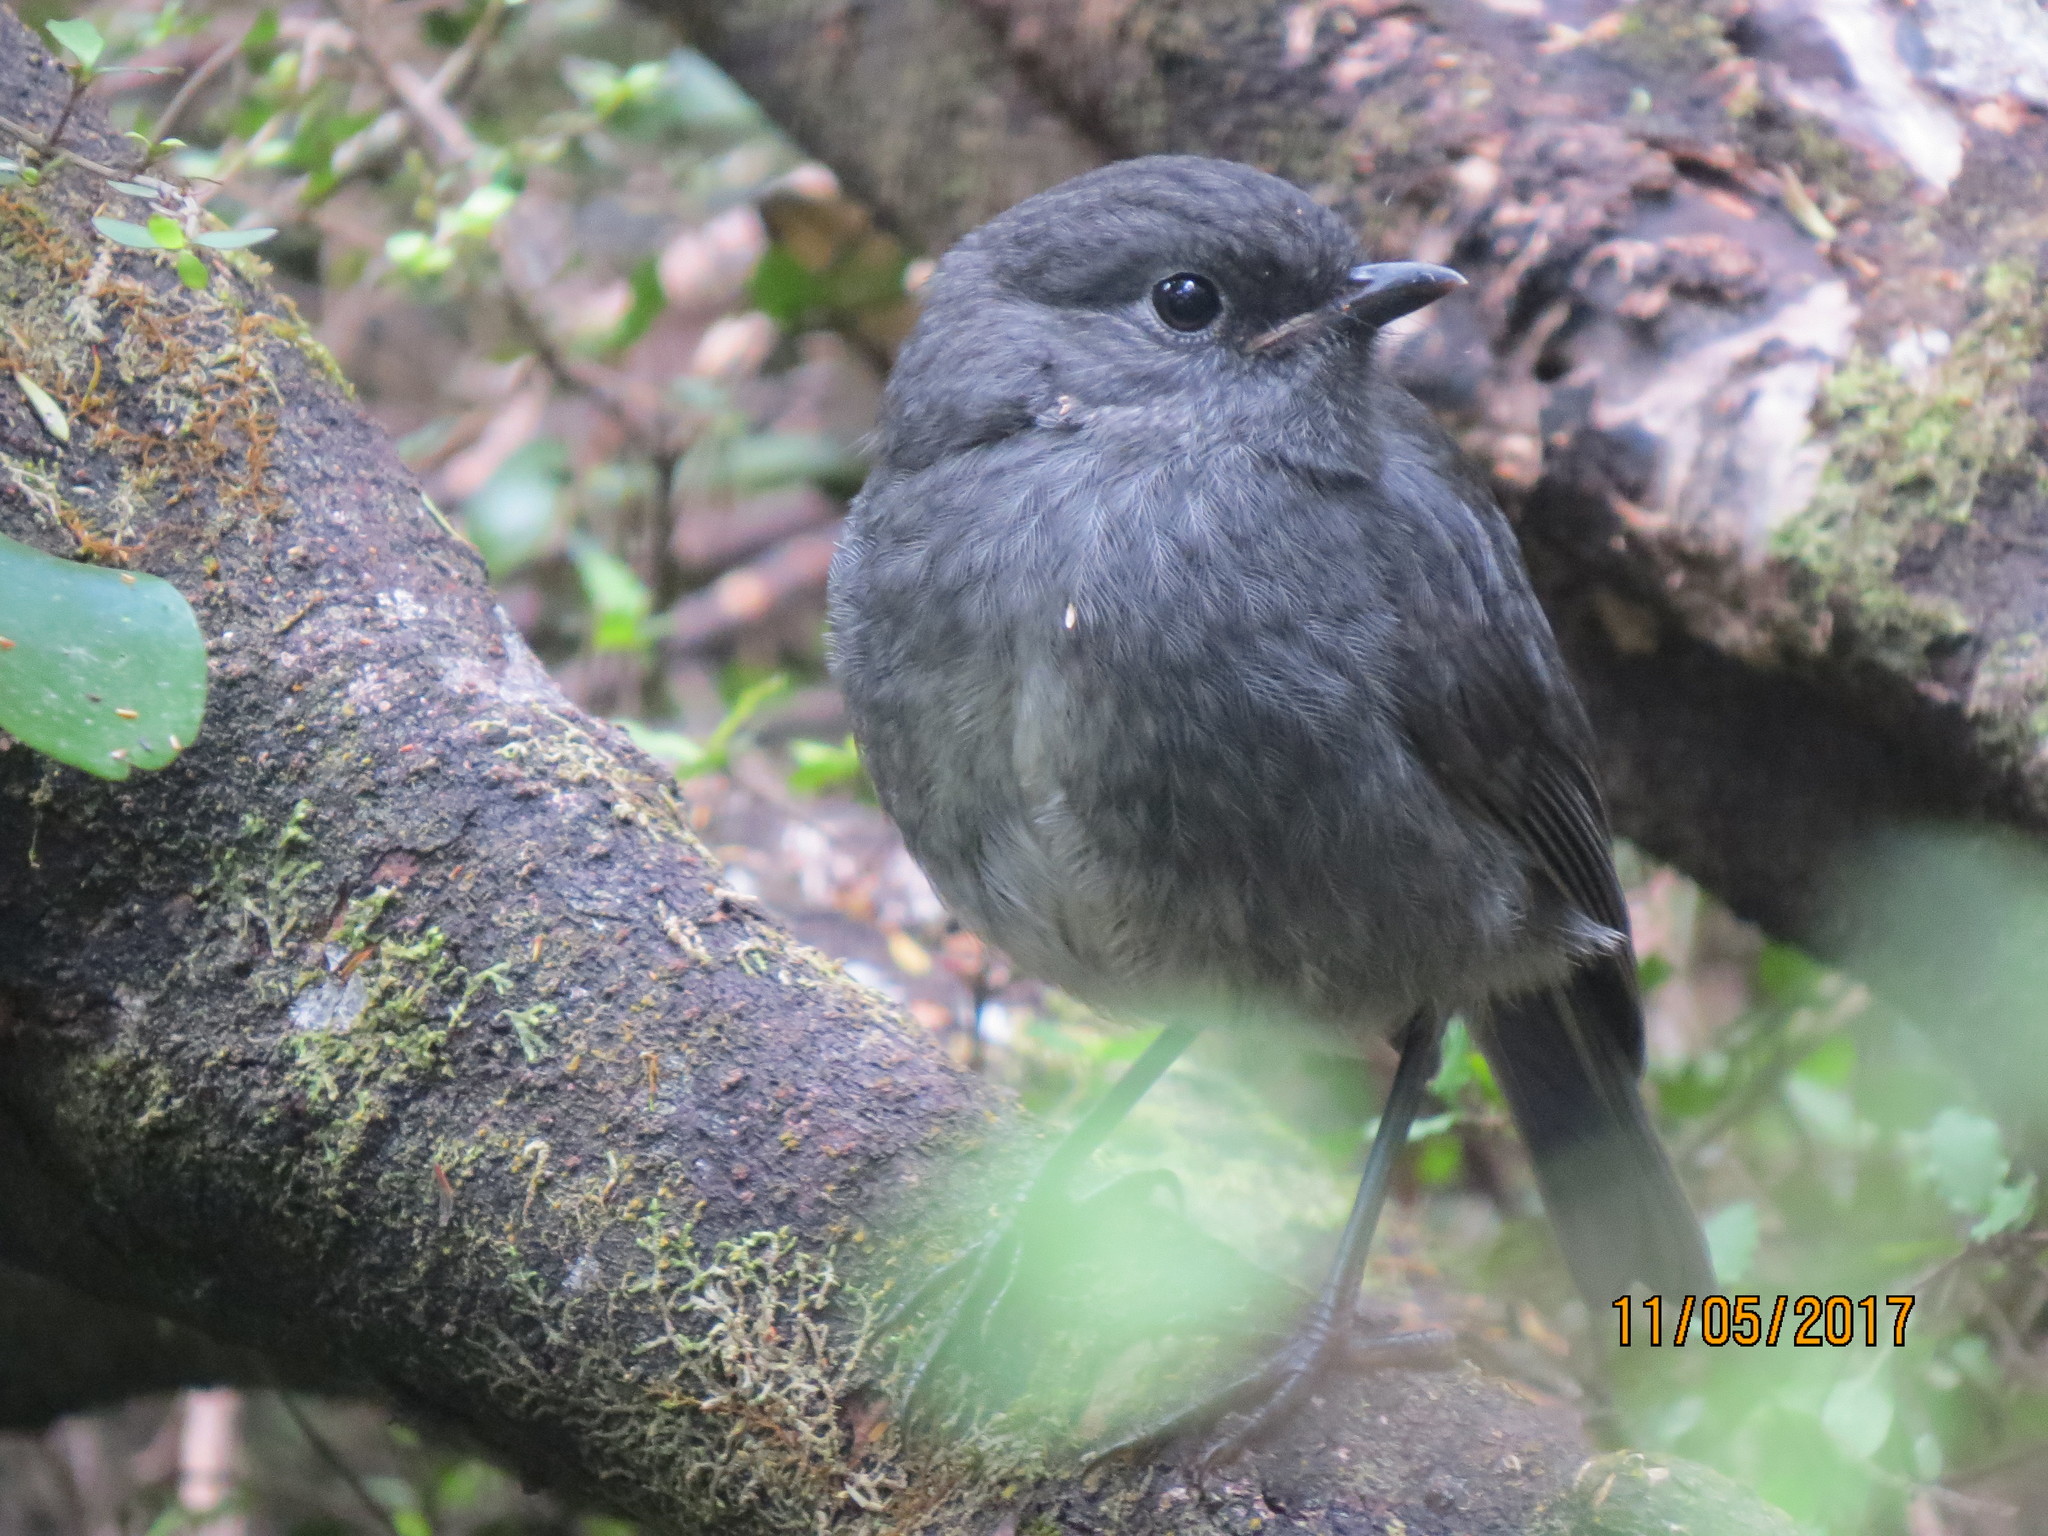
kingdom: Animalia
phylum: Chordata
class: Aves
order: Passeriformes
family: Petroicidae
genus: Petroica
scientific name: Petroica australis
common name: New zealand robin
